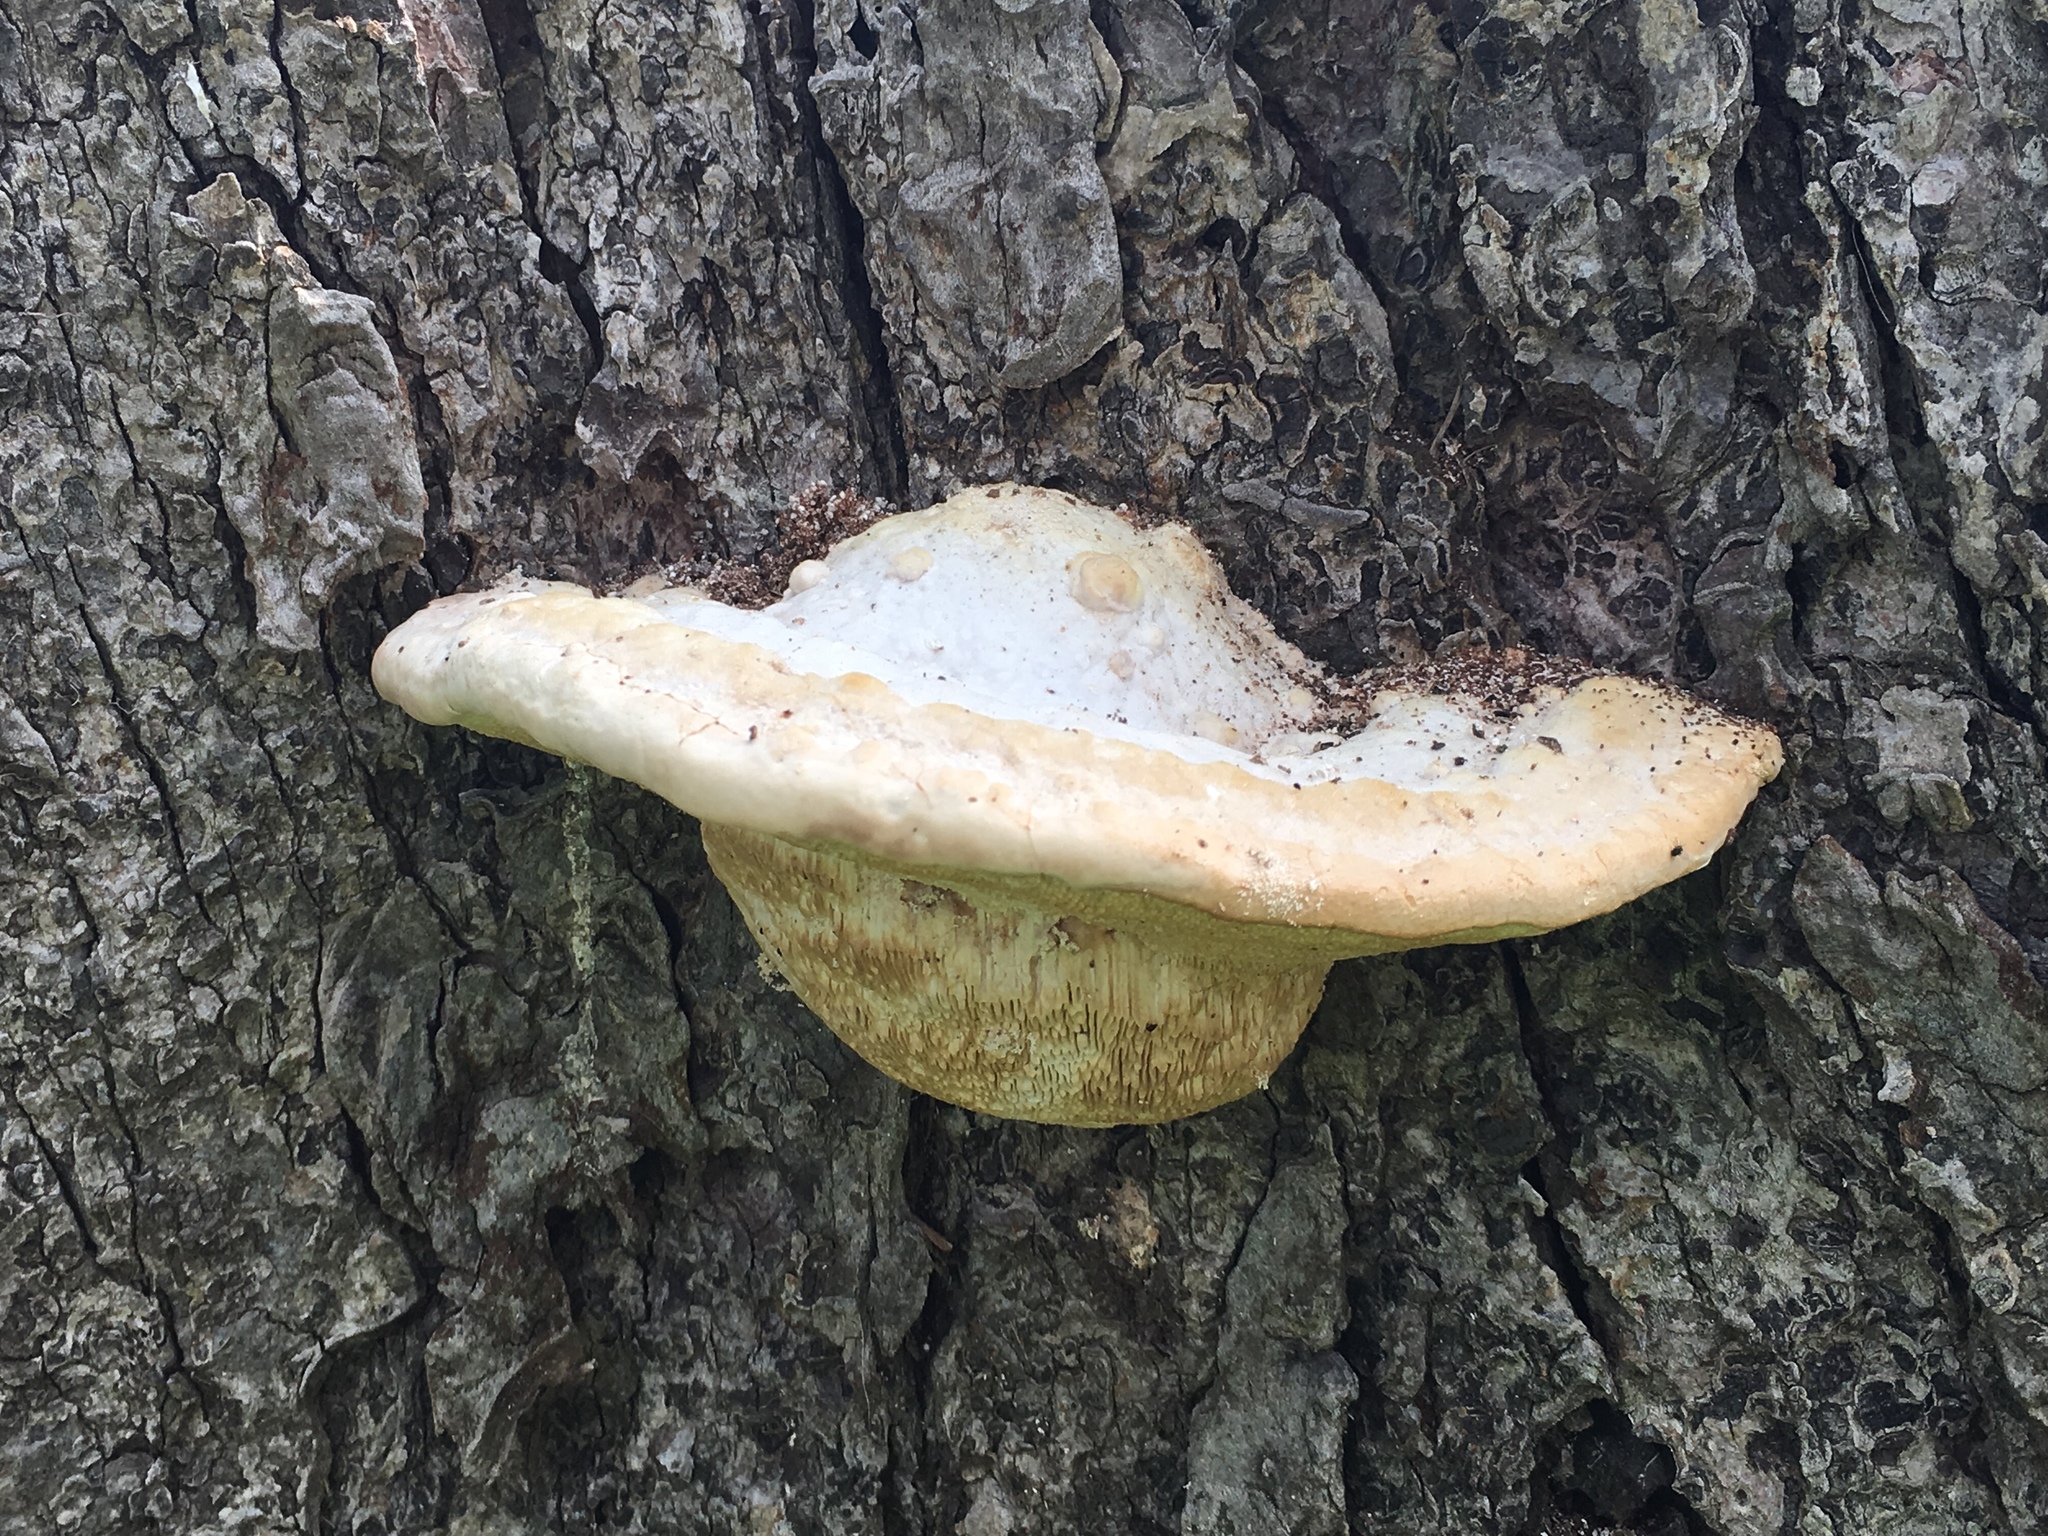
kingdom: Fungi
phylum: Basidiomycota
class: Agaricomycetes
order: Polyporales
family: Polyporaceae
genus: Trametes
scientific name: Trametes gibbosa
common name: Lumpy bracket
